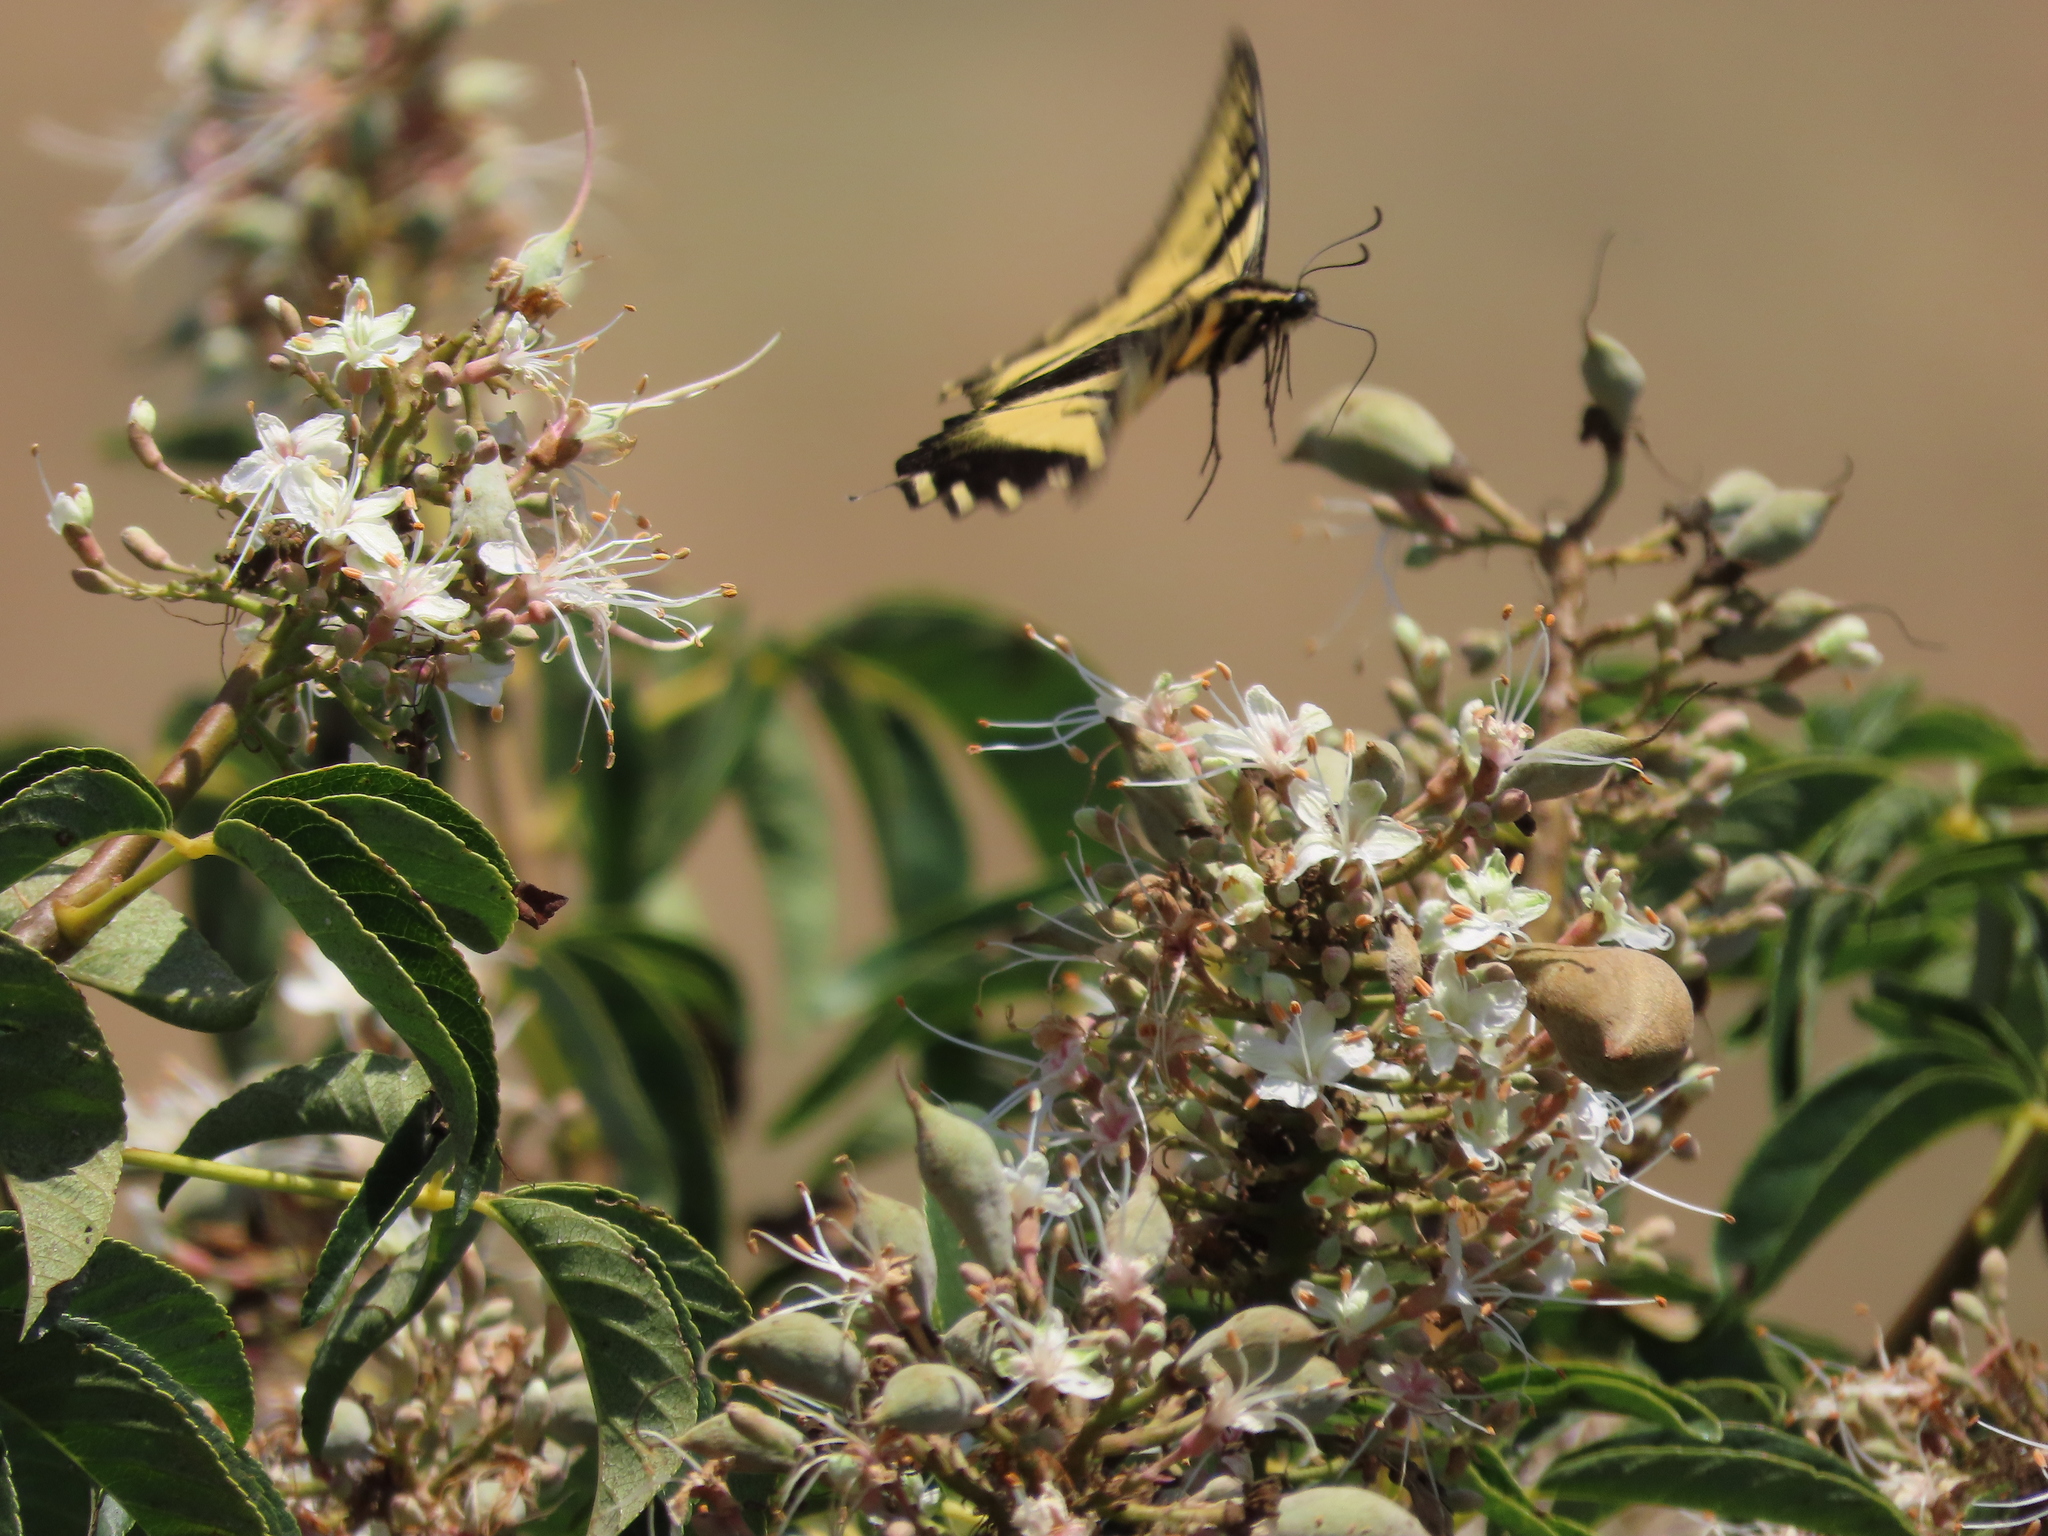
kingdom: Animalia
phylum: Arthropoda
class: Insecta
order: Lepidoptera
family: Papilionidae
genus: Papilio
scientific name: Papilio rutulus
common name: Western tiger swallowtail
